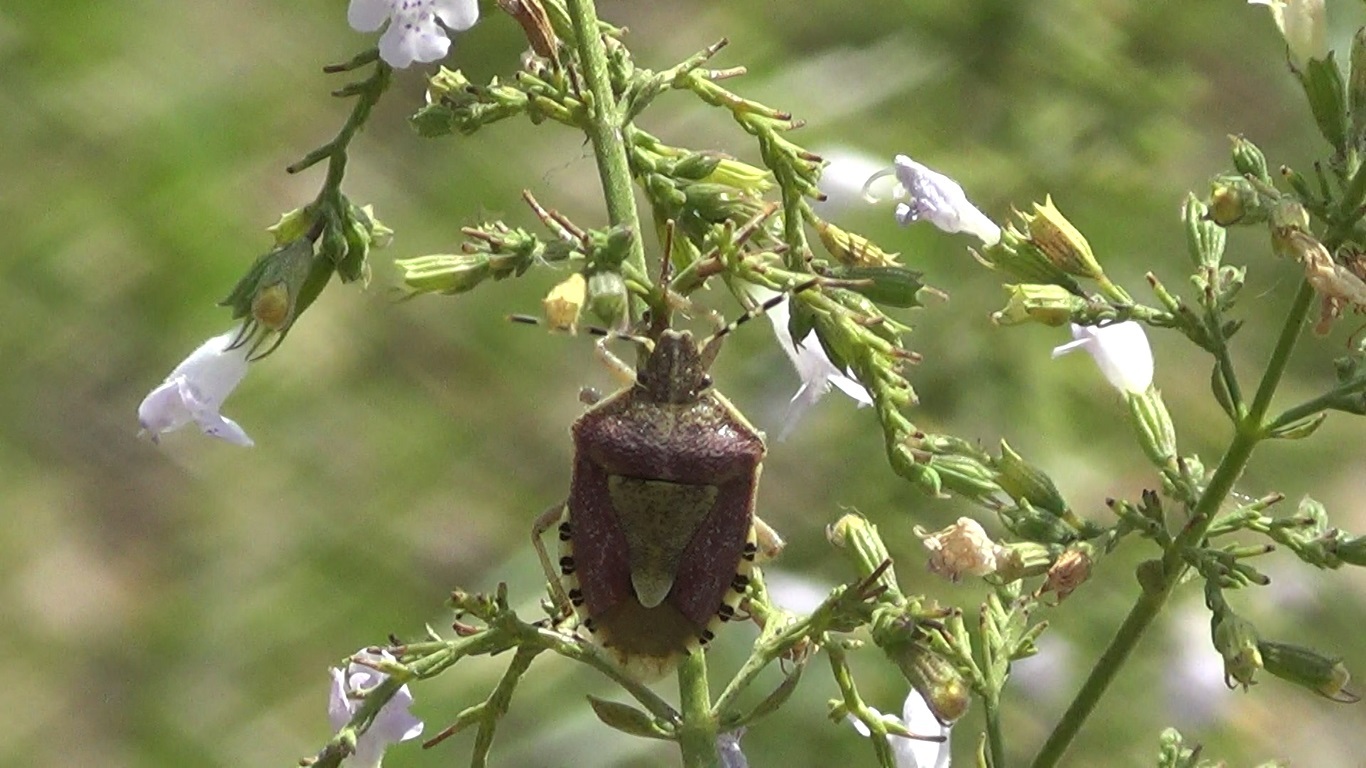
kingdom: Animalia
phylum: Arthropoda
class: Insecta
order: Hemiptera
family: Pentatomidae
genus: Dolycoris
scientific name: Dolycoris baccarum
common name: Sloe bug
